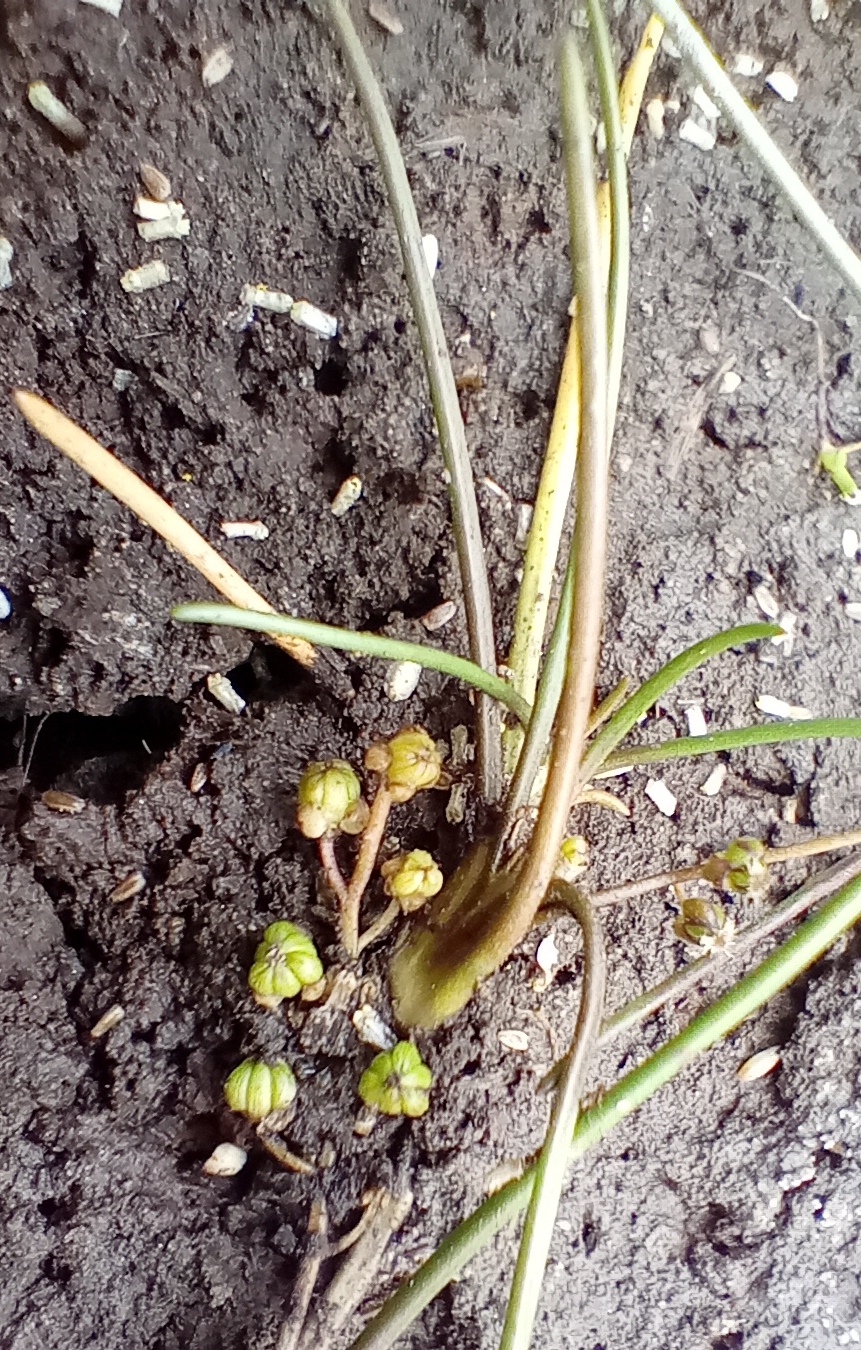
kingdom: Plantae
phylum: Tracheophyta
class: Liliopsida
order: Alismatales
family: Juncaginaceae
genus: Triglochin
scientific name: Triglochin striata
